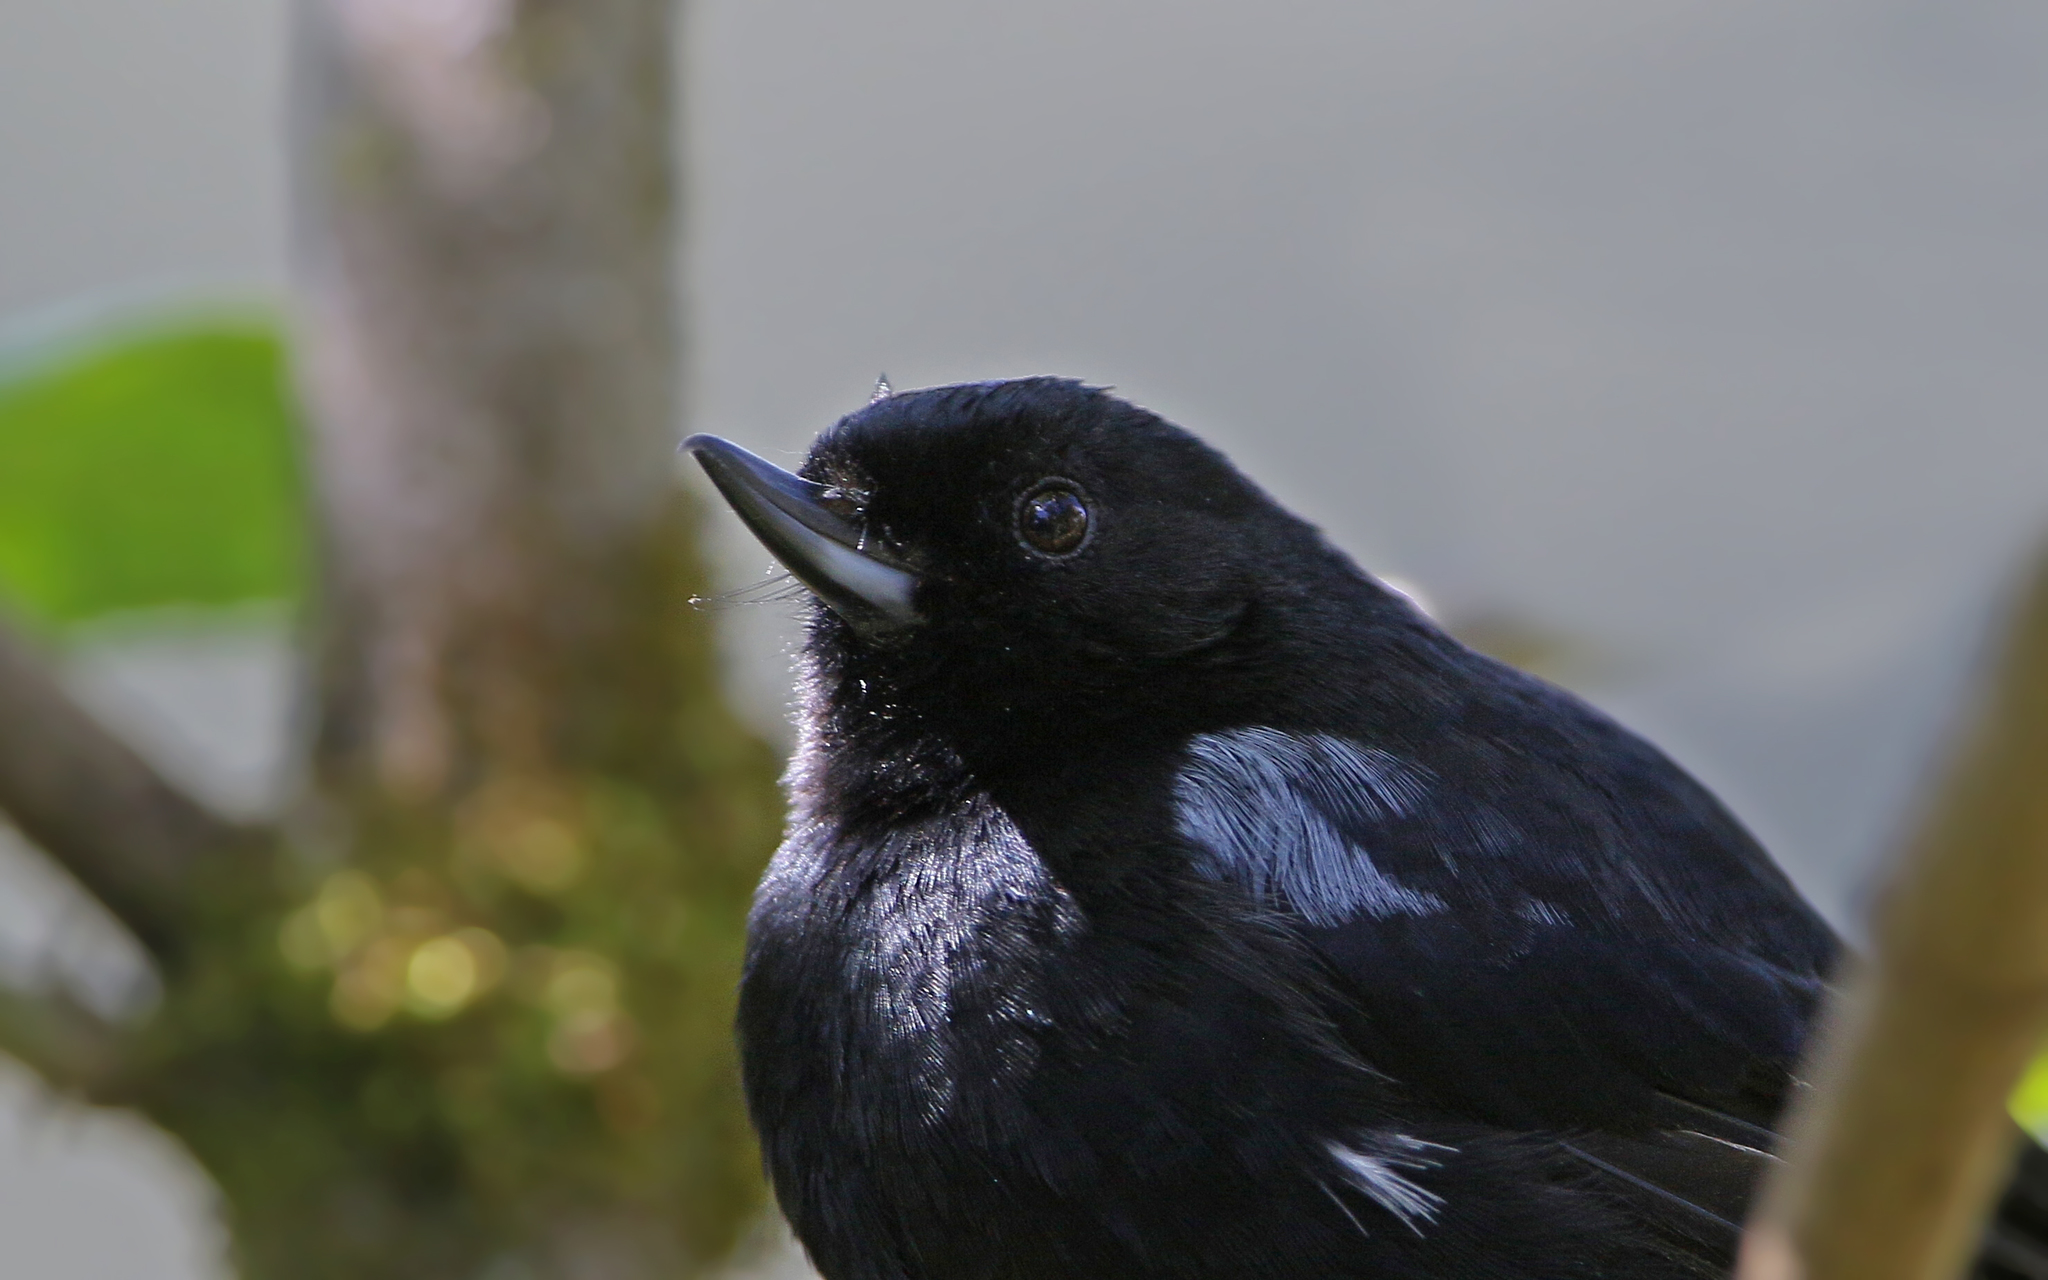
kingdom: Animalia
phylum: Chordata
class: Aves
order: Passeriformes
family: Thraupidae
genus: Diglossa
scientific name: Diglossa lafresnayii
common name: Glossy flowerpiercer
